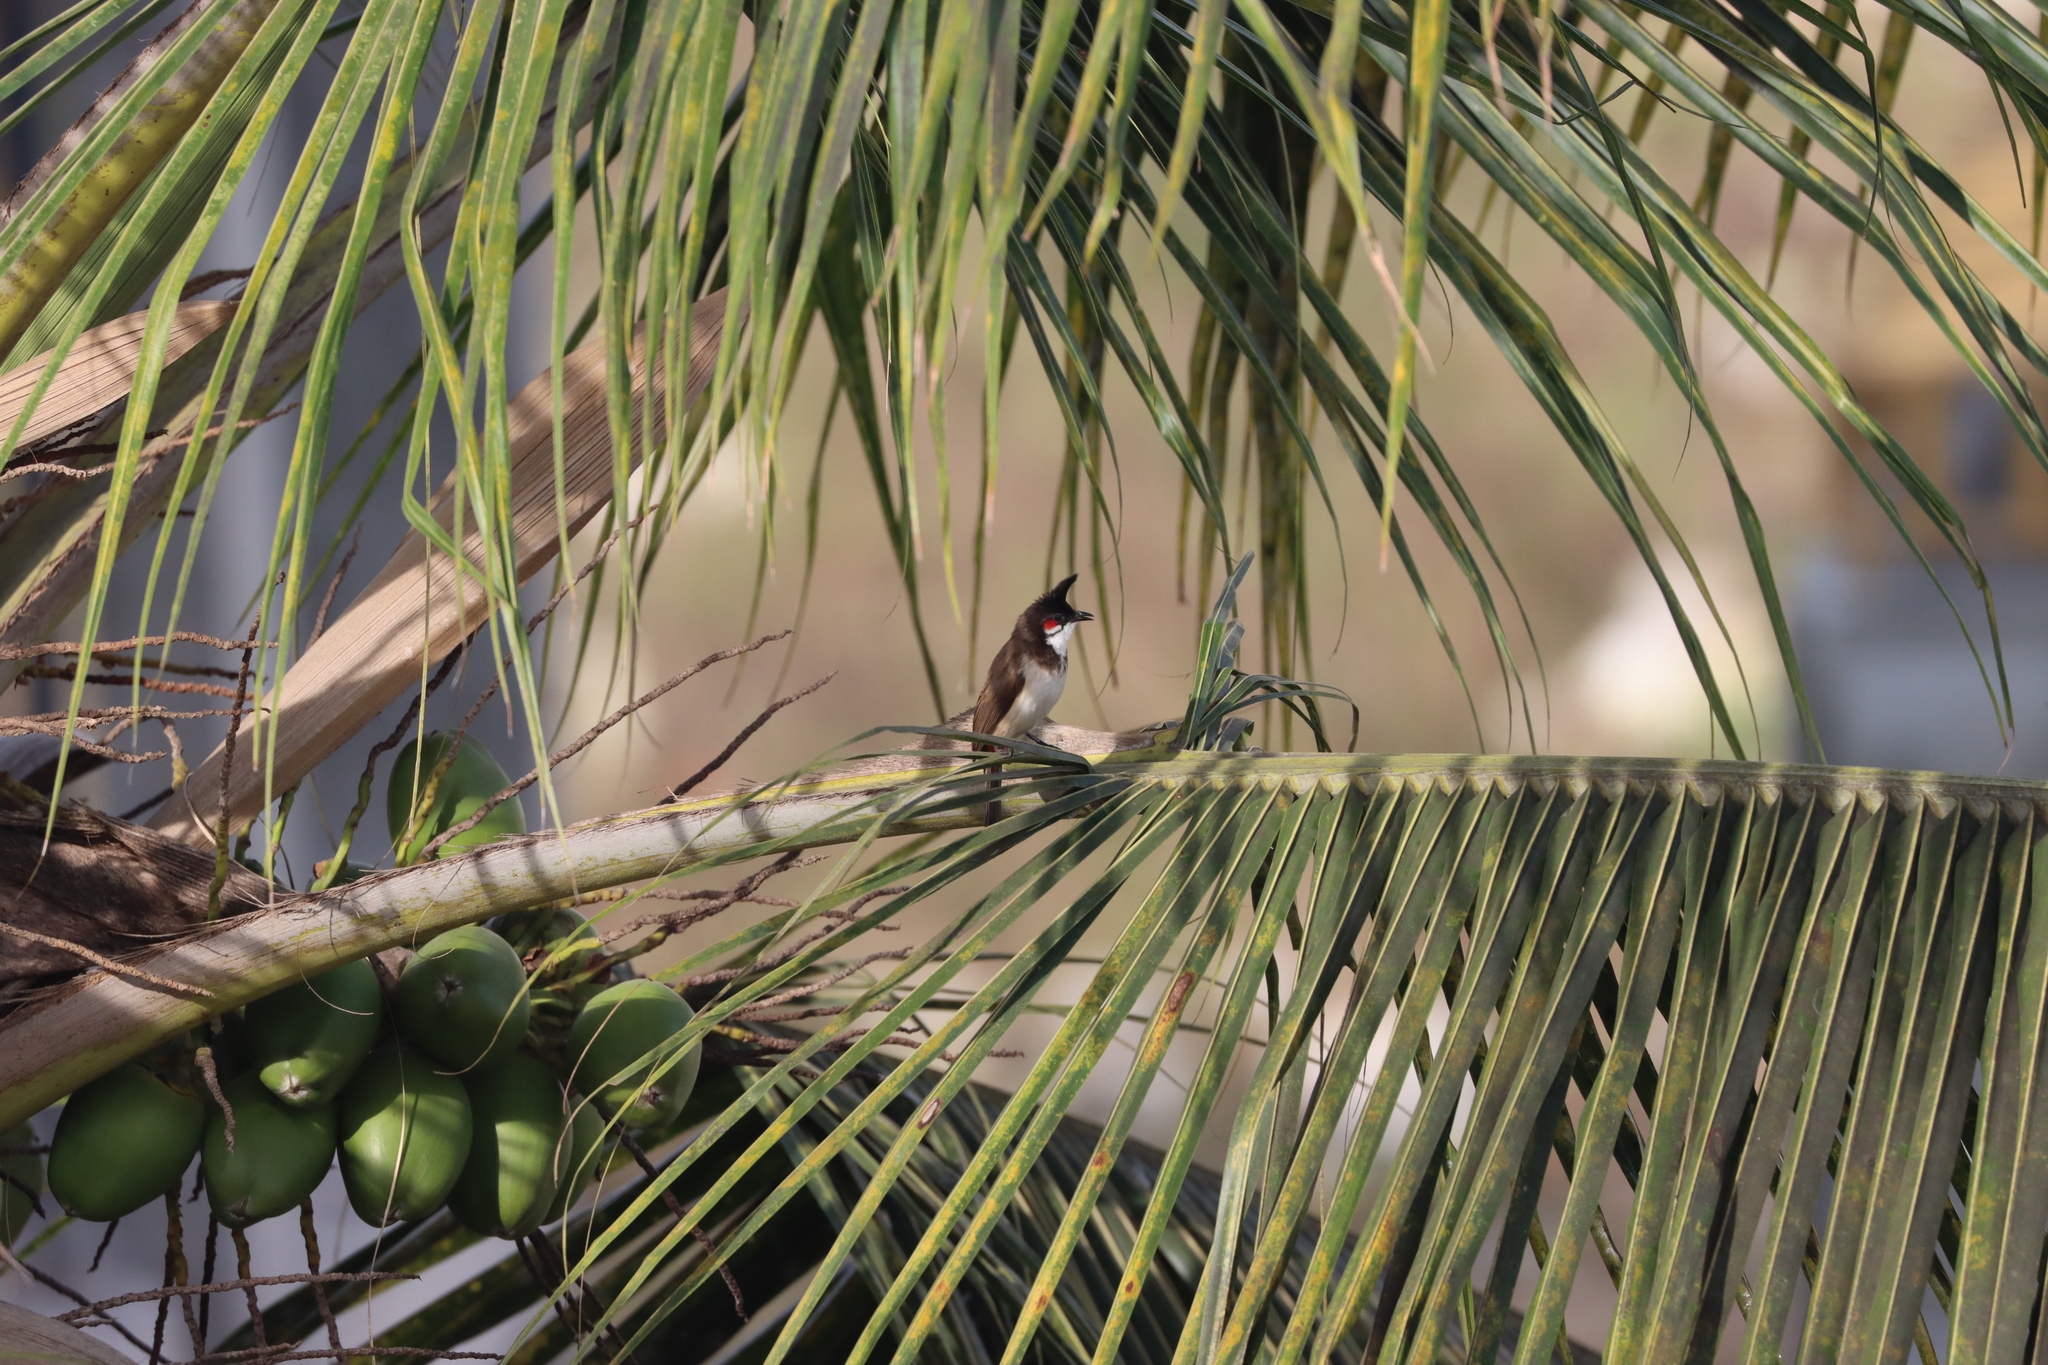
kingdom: Animalia
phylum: Chordata
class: Aves
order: Passeriformes
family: Pycnonotidae
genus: Pycnonotus
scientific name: Pycnonotus jocosus
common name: Red-whiskered bulbul
